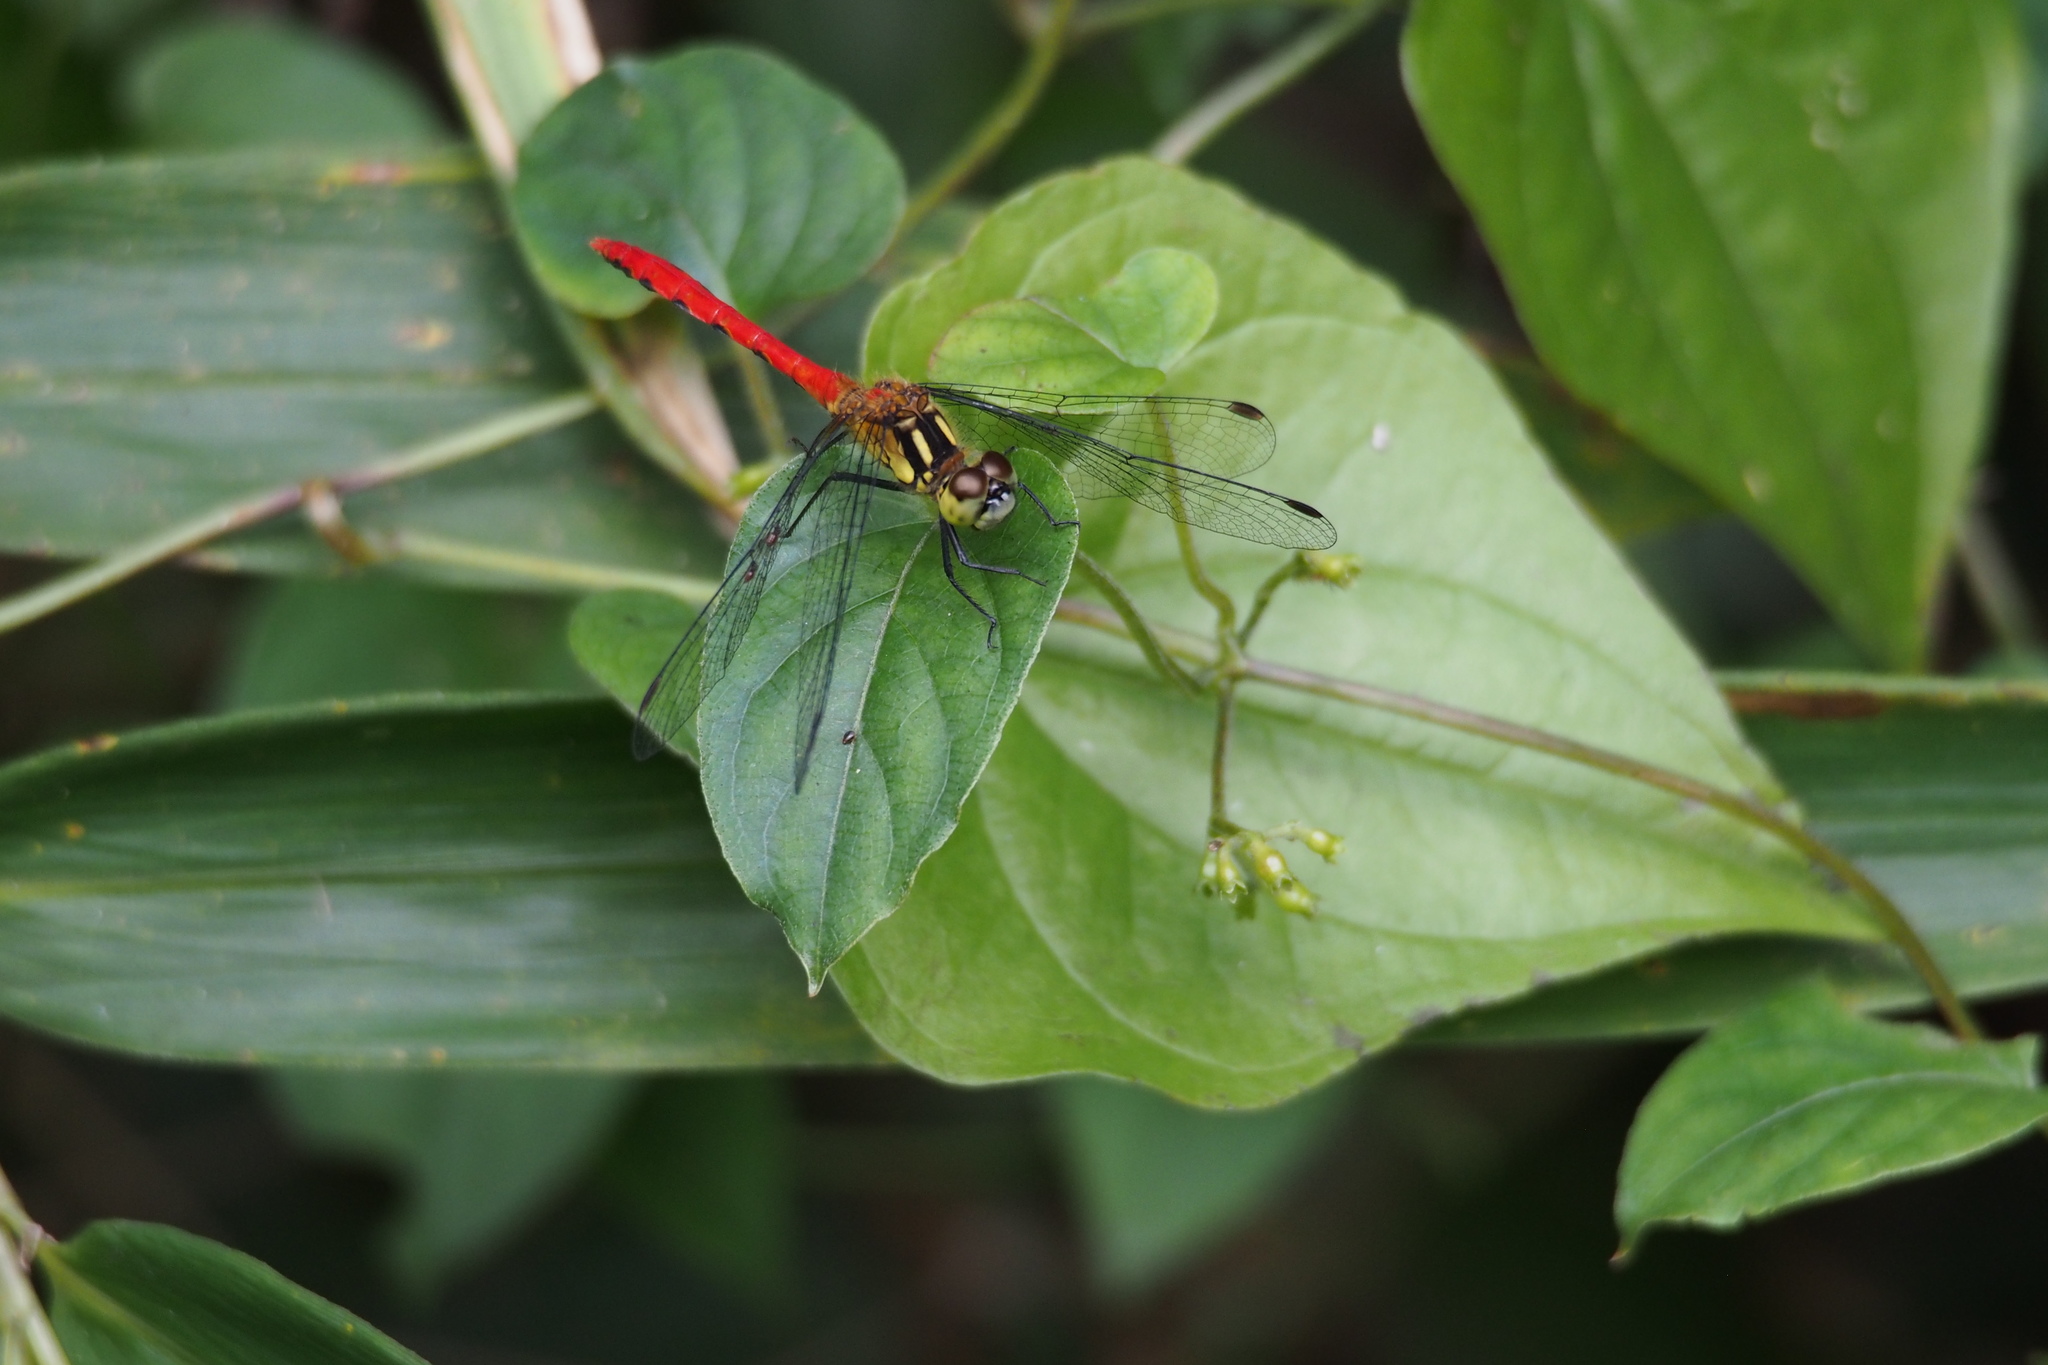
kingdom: Animalia
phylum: Arthropoda
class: Insecta
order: Odonata
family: Libellulidae
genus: Sympetrum
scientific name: Sympetrum parvulum
